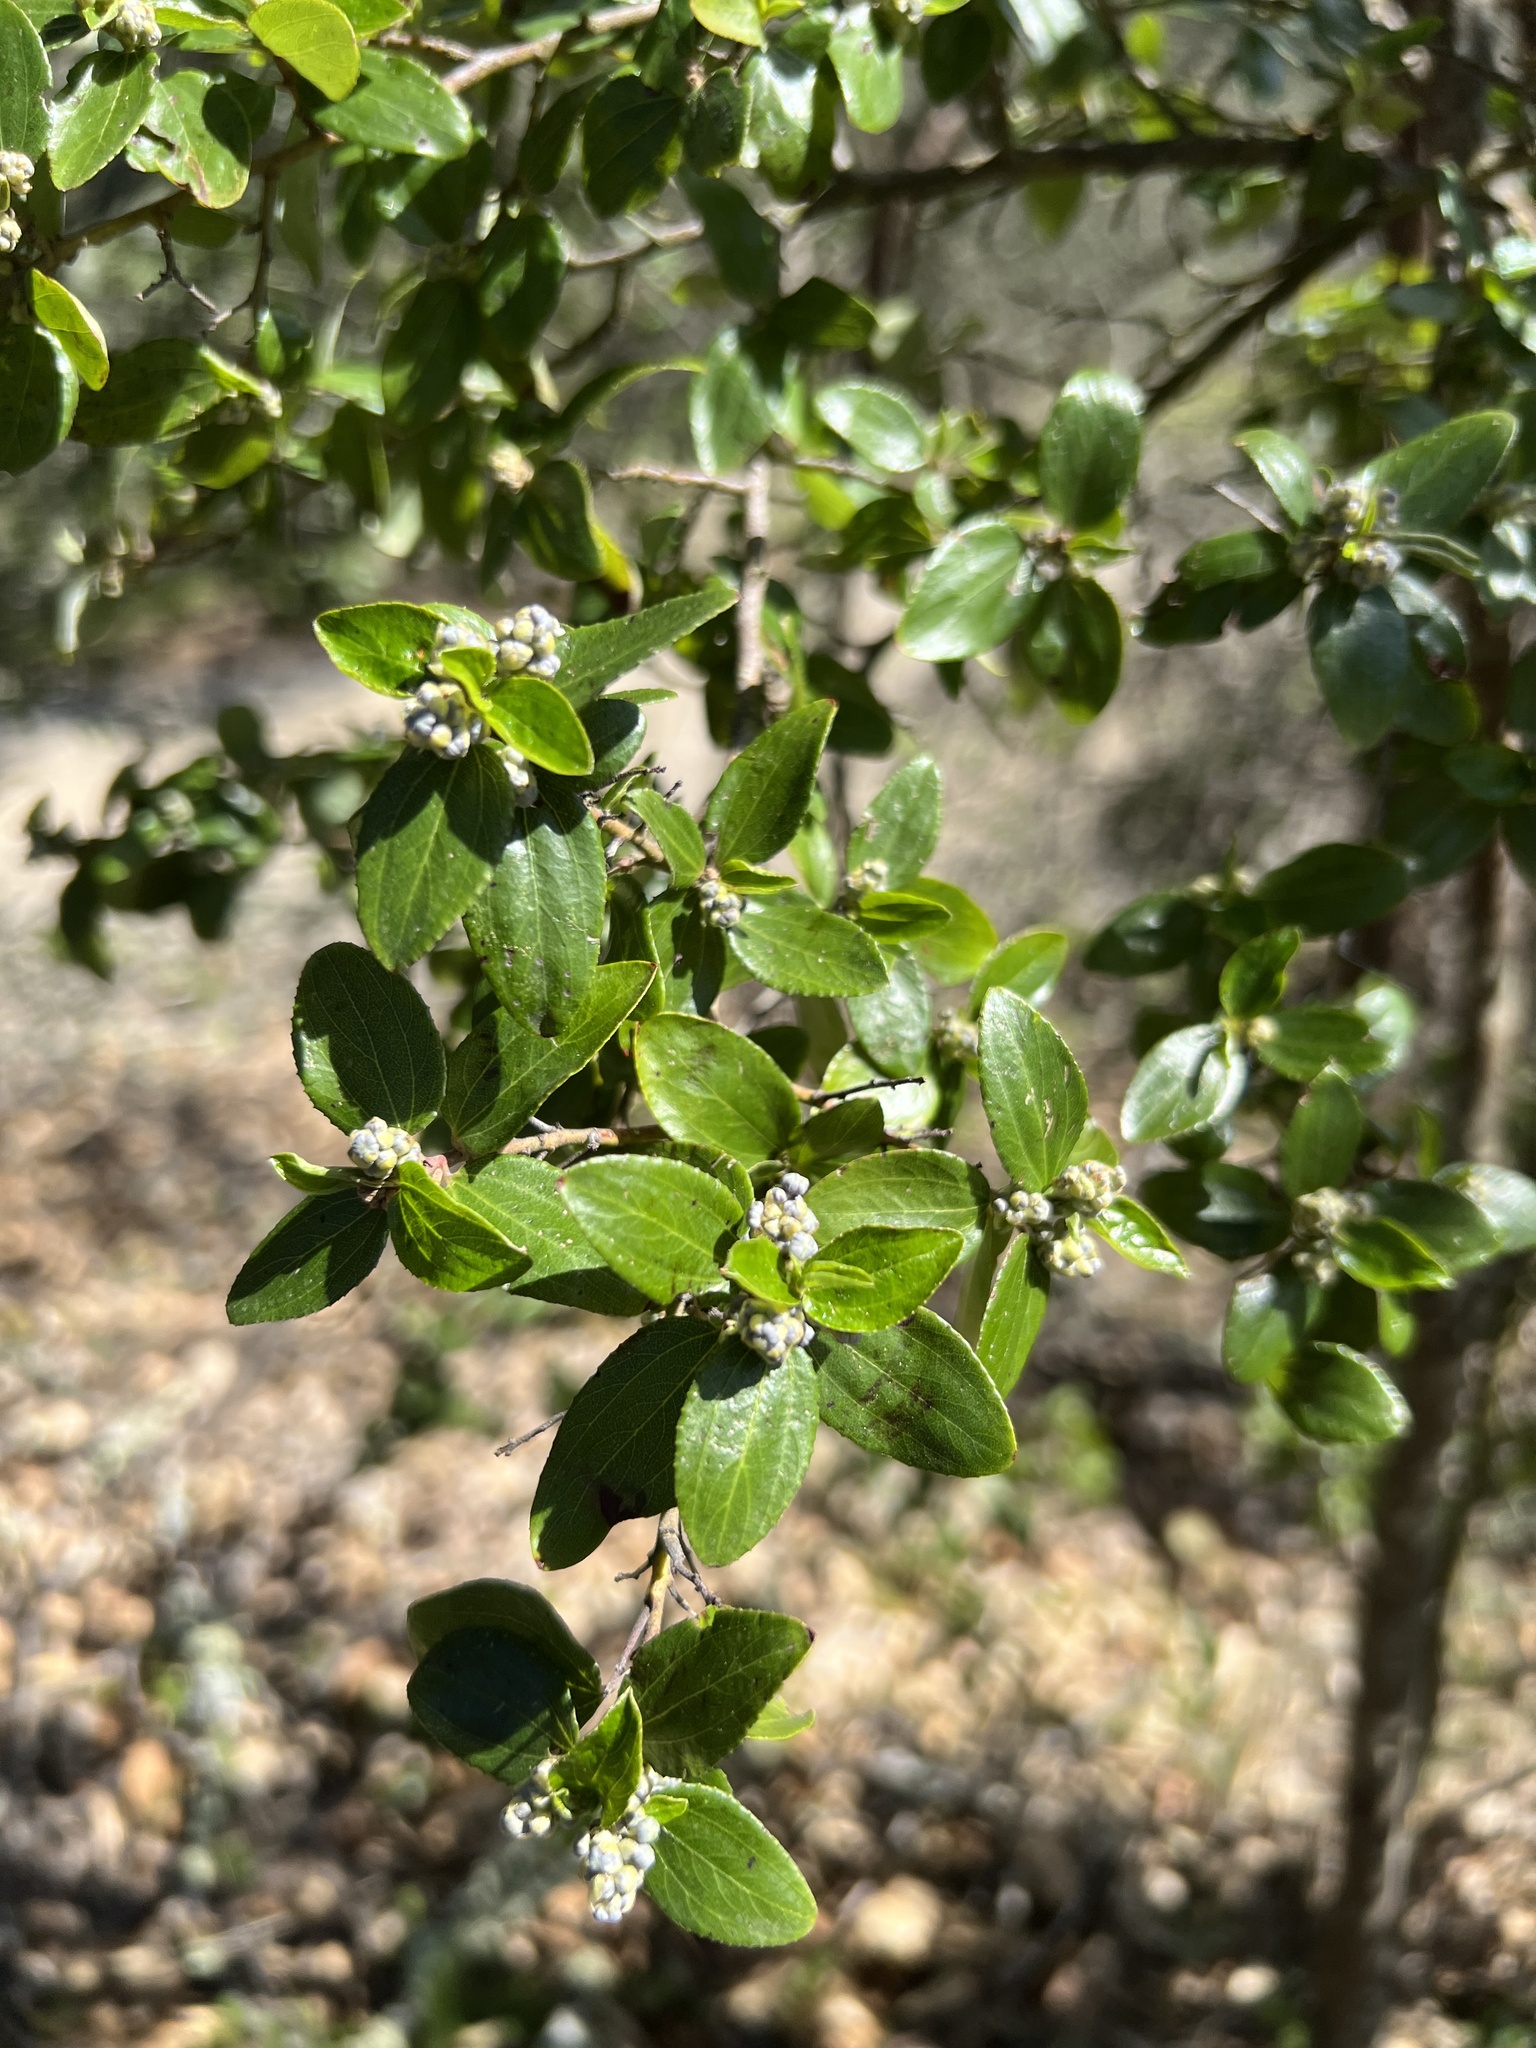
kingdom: Plantae
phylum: Tracheophyta
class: Magnoliopsida
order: Rosales
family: Rhamnaceae
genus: Ceanothus
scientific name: Ceanothus sorediatus
